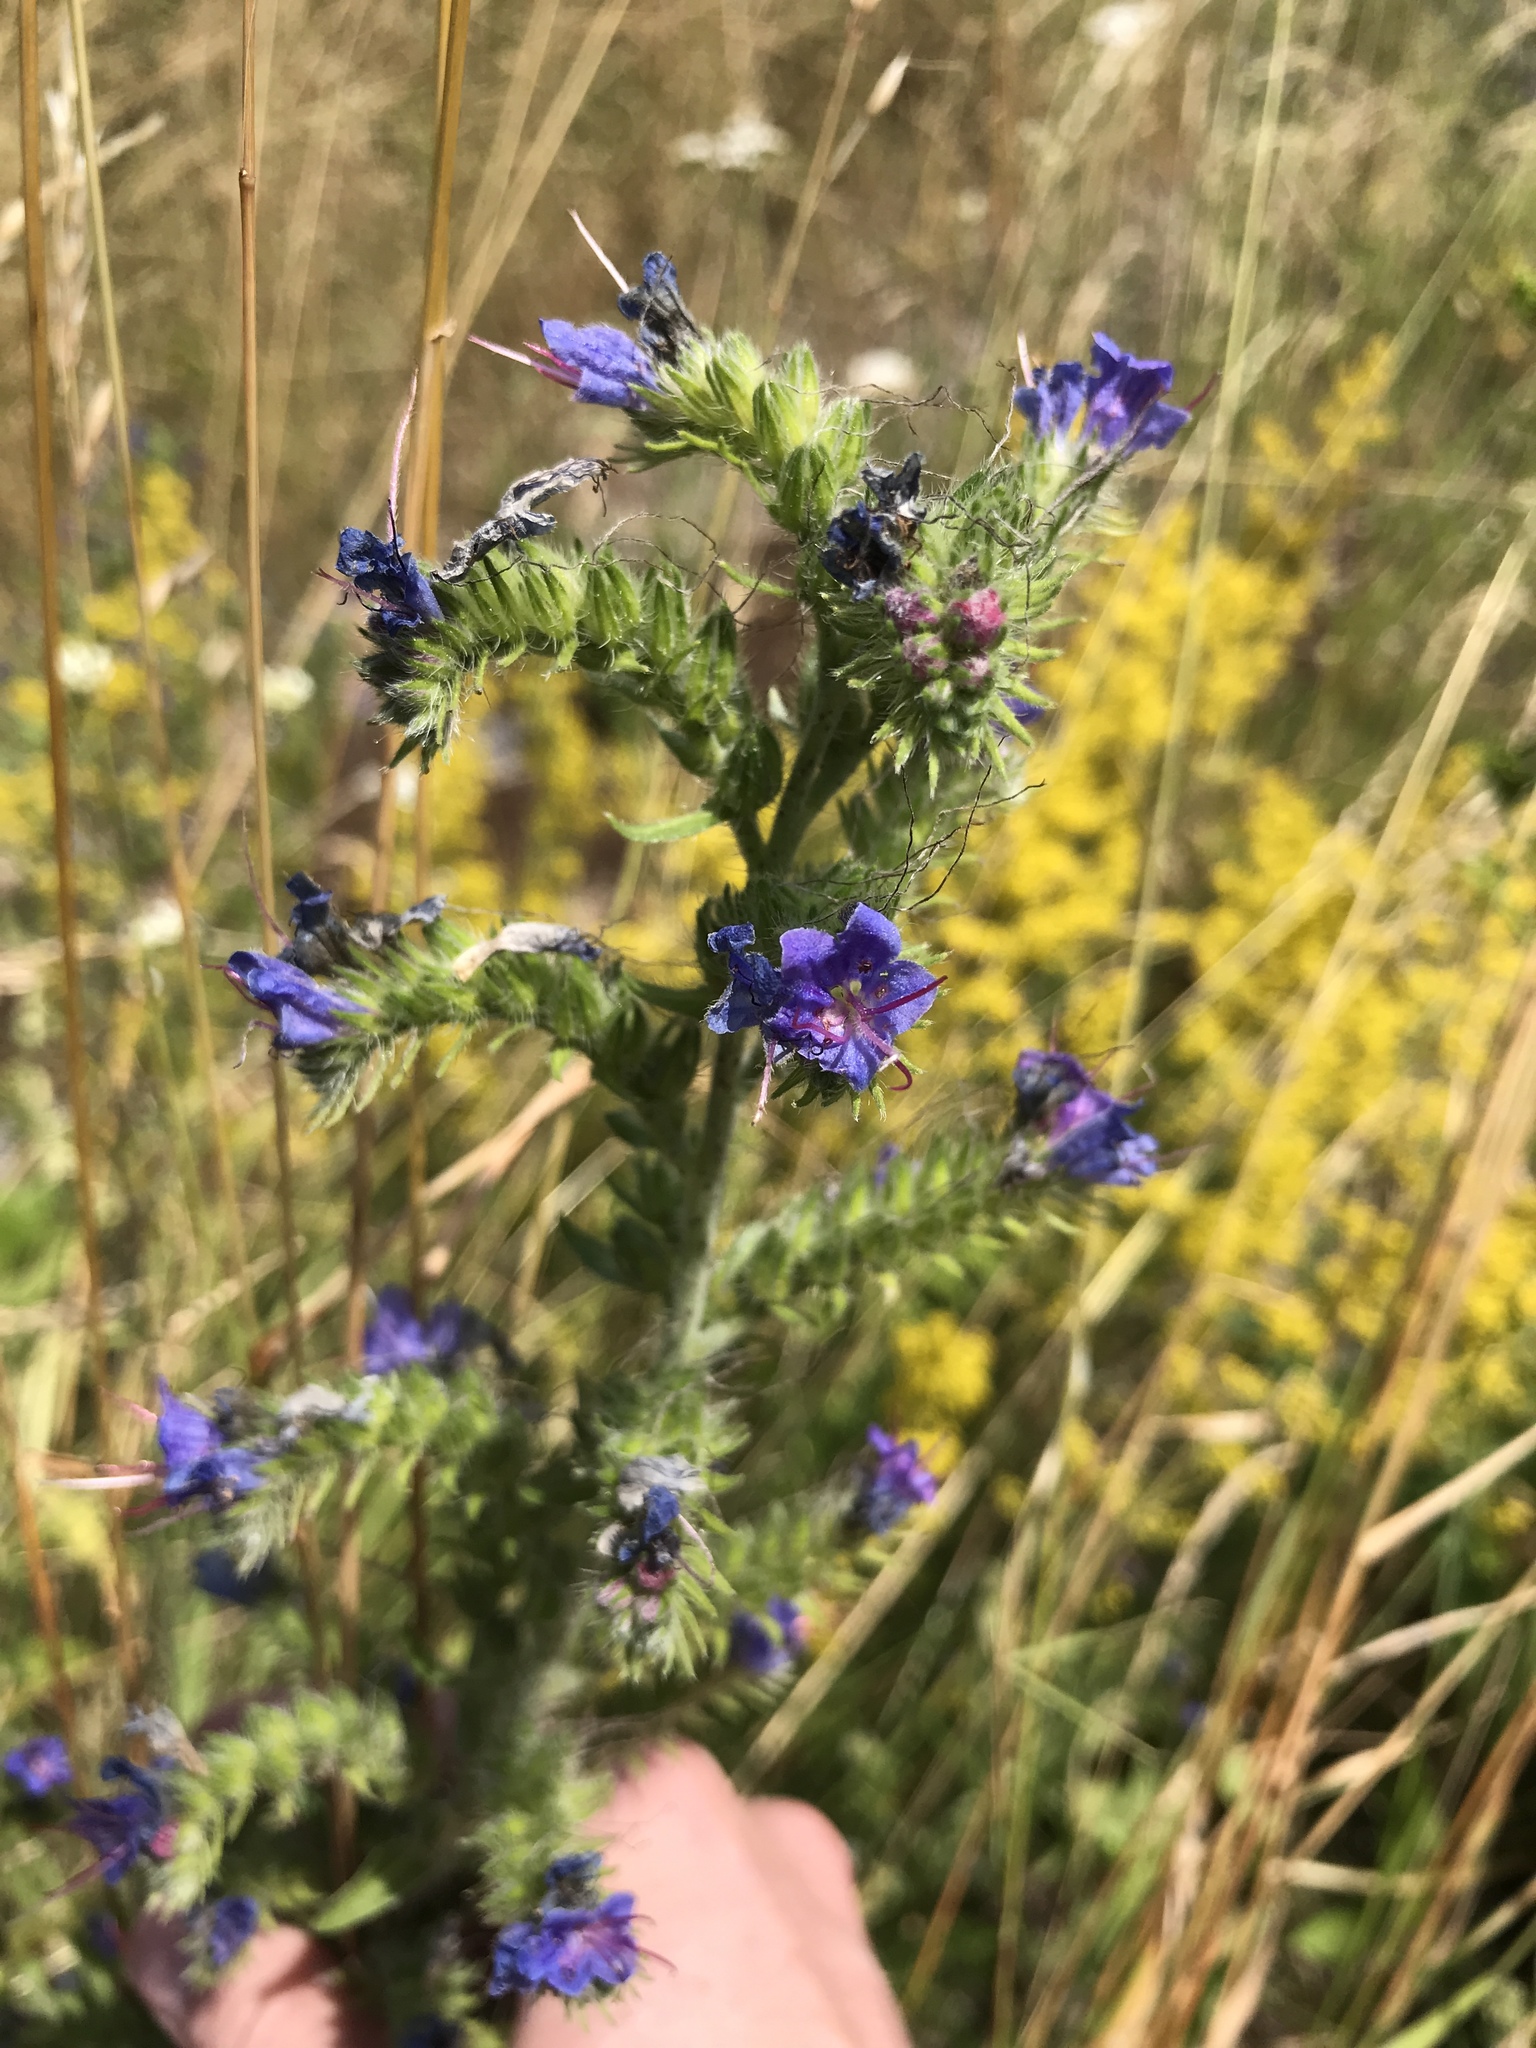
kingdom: Plantae
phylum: Tracheophyta
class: Magnoliopsida
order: Boraginales
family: Boraginaceae
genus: Echium
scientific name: Echium vulgare
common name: Common viper's bugloss
